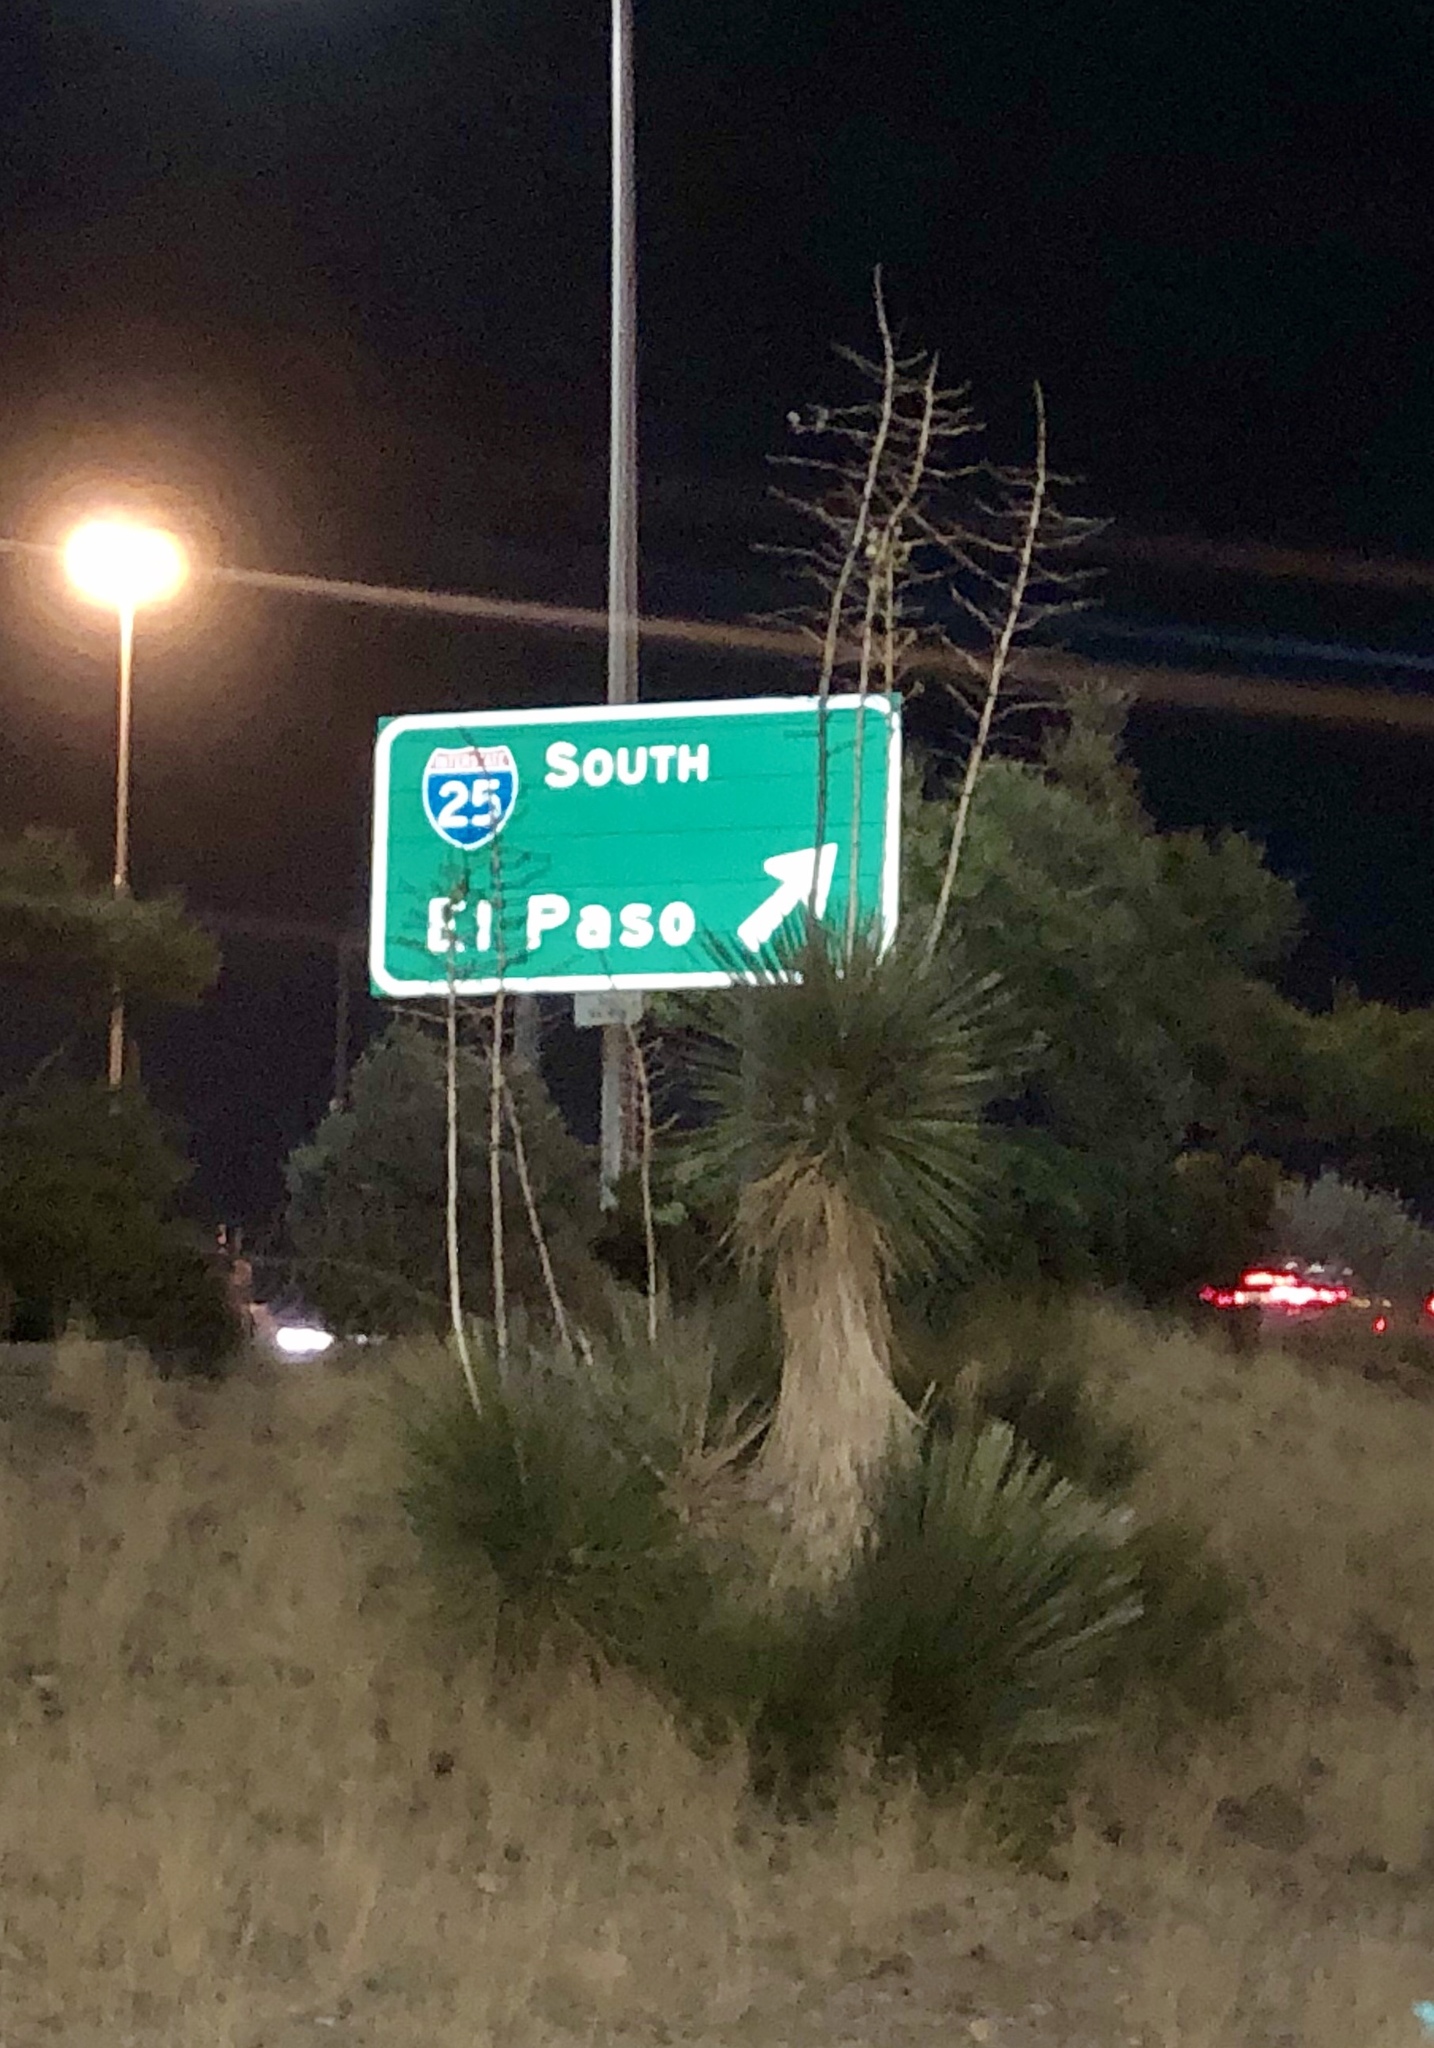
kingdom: Plantae
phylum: Tracheophyta
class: Liliopsida
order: Asparagales
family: Asparagaceae
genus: Yucca
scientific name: Yucca elata
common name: Palmella
